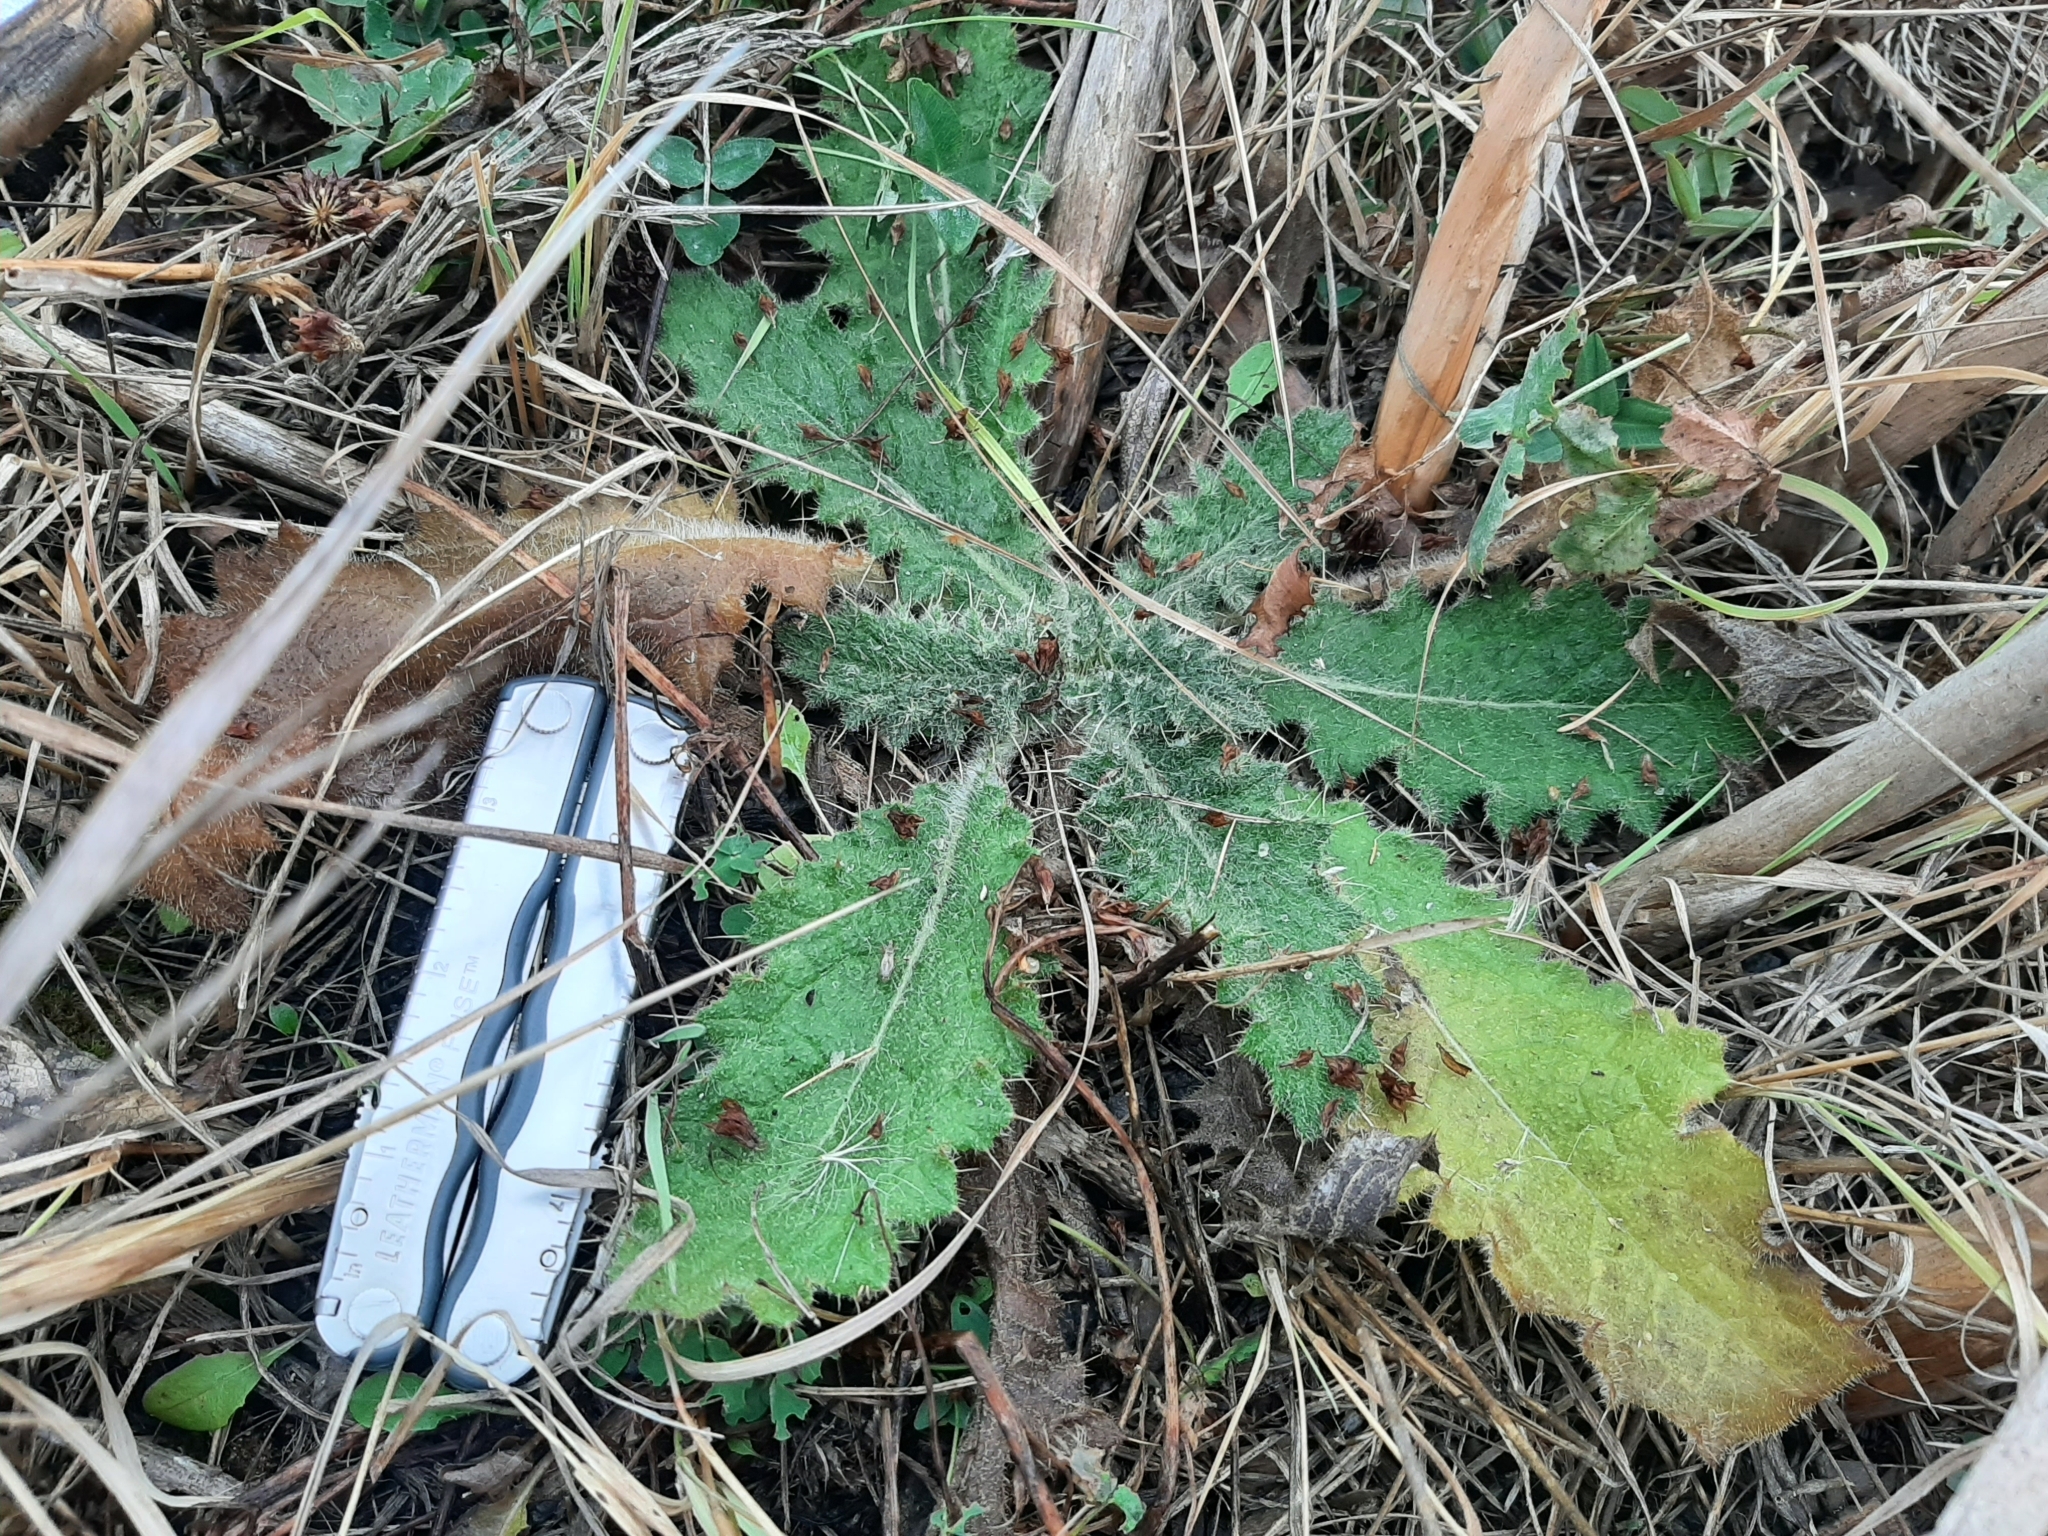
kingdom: Plantae
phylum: Tracheophyta
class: Magnoliopsida
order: Asterales
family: Asteraceae
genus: Cirsium
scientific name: Cirsium vulgare
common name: Bull thistle
